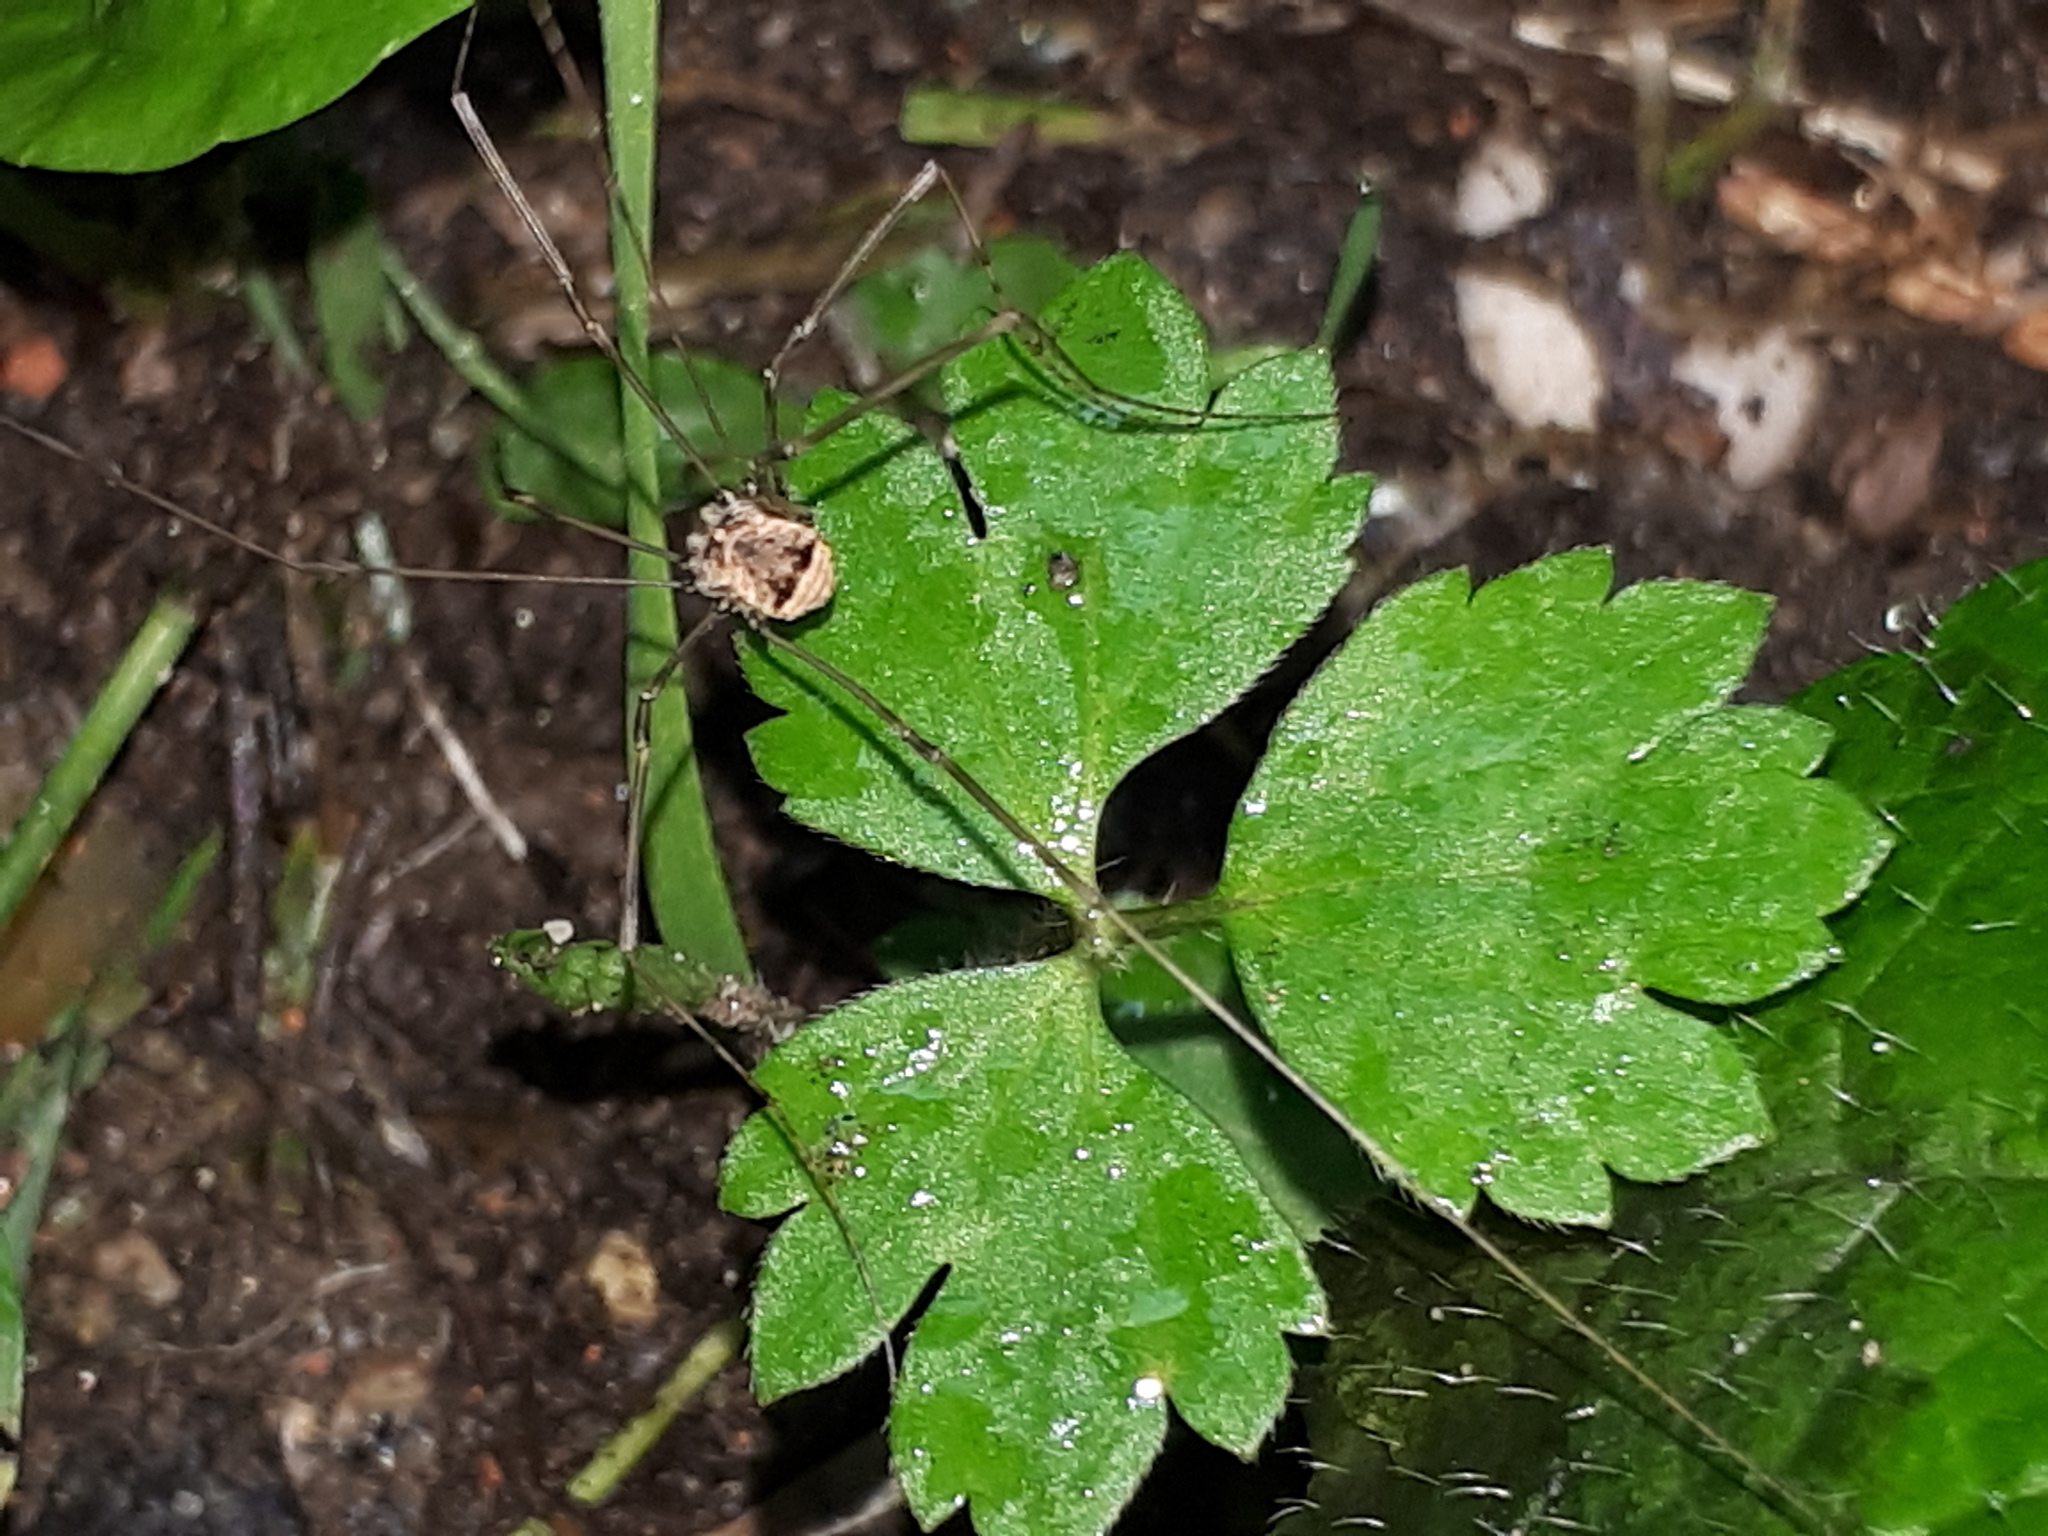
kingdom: Animalia
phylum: Arthropoda
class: Arachnida
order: Opiliones
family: Sclerosomatidae
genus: Leiobunum
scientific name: Leiobunum blackwalli
